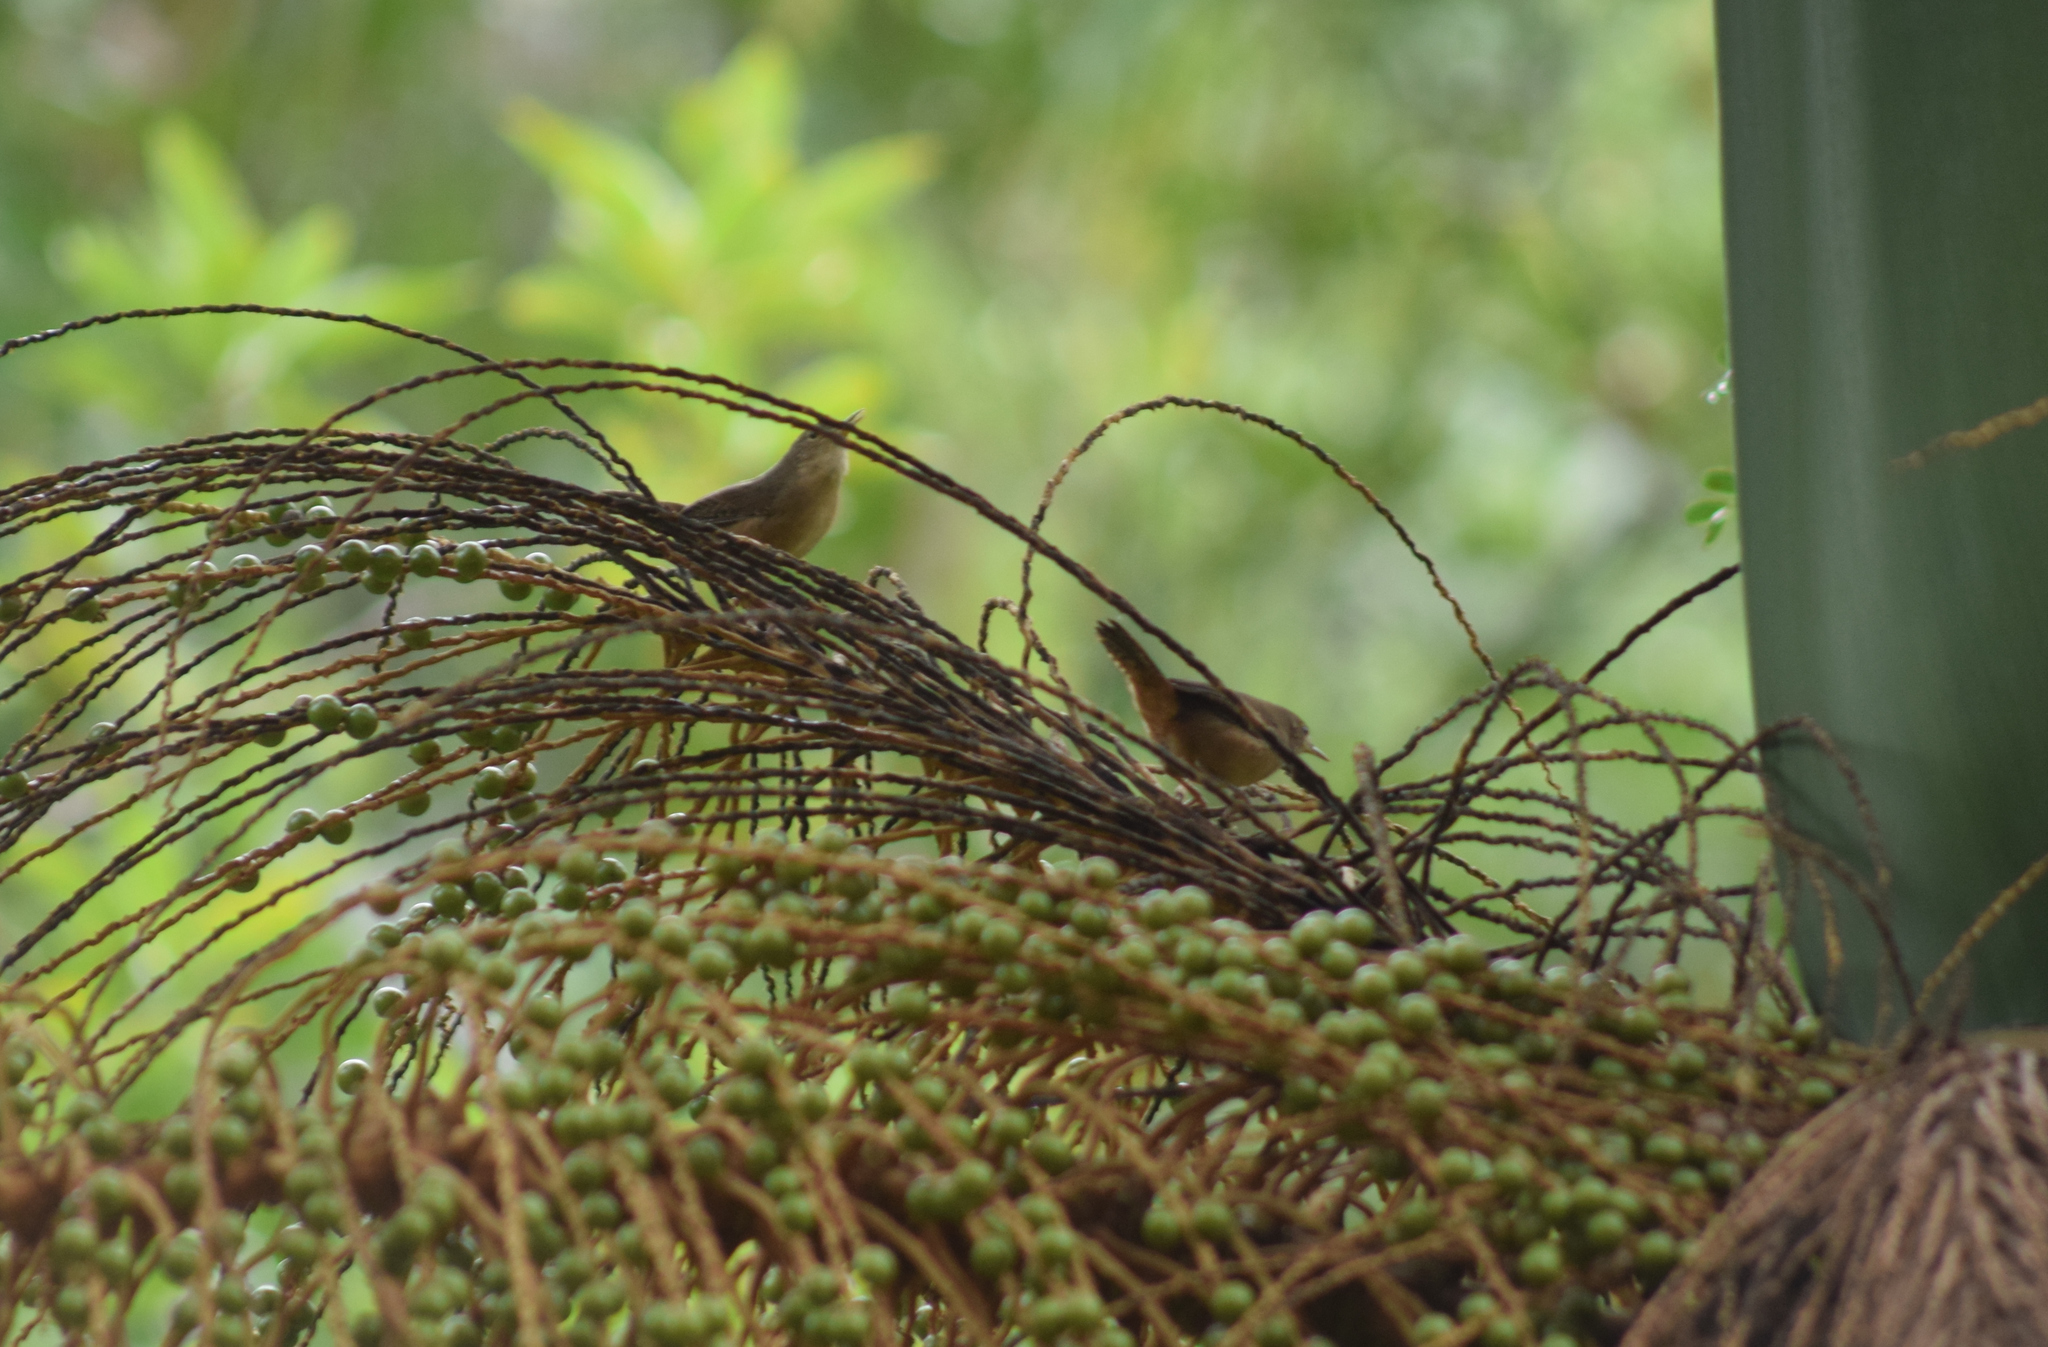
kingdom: Animalia
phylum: Chordata
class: Aves
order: Passeriformes
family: Troglodytidae
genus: Troglodytes
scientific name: Troglodytes aedon
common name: House wren
